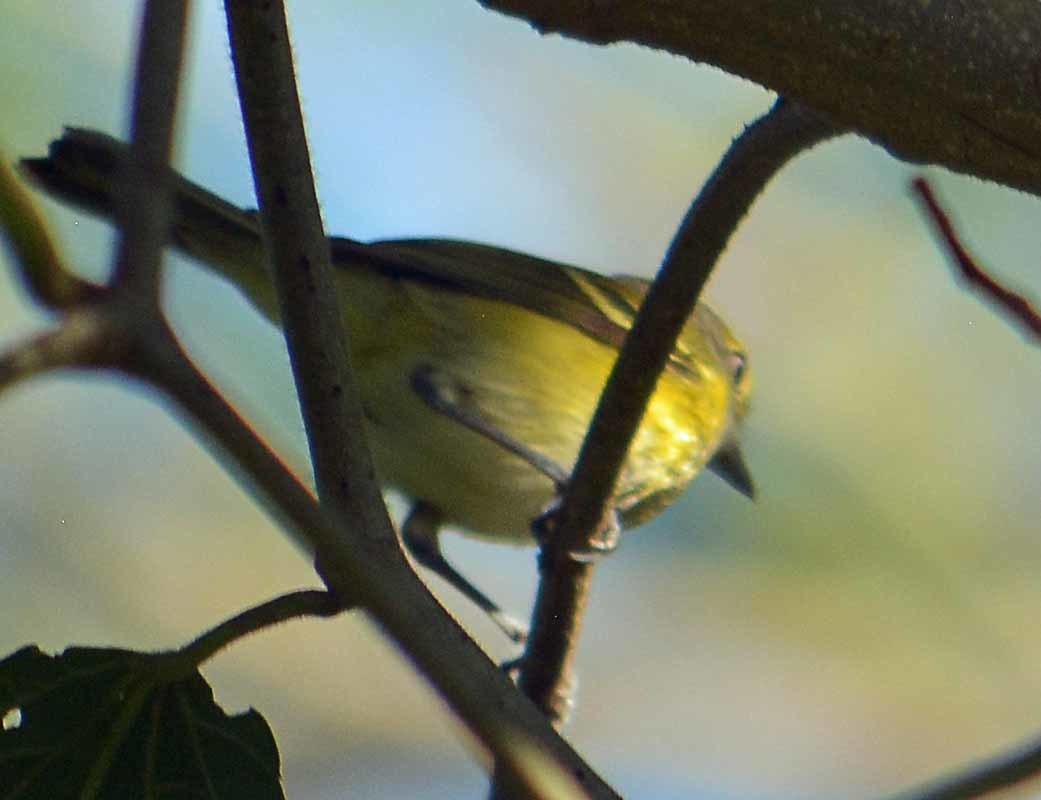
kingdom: Animalia
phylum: Chordata
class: Aves
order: Passeriformes
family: Vireonidae
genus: Vireo
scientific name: Vireo griseus
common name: White-eyed vireo
